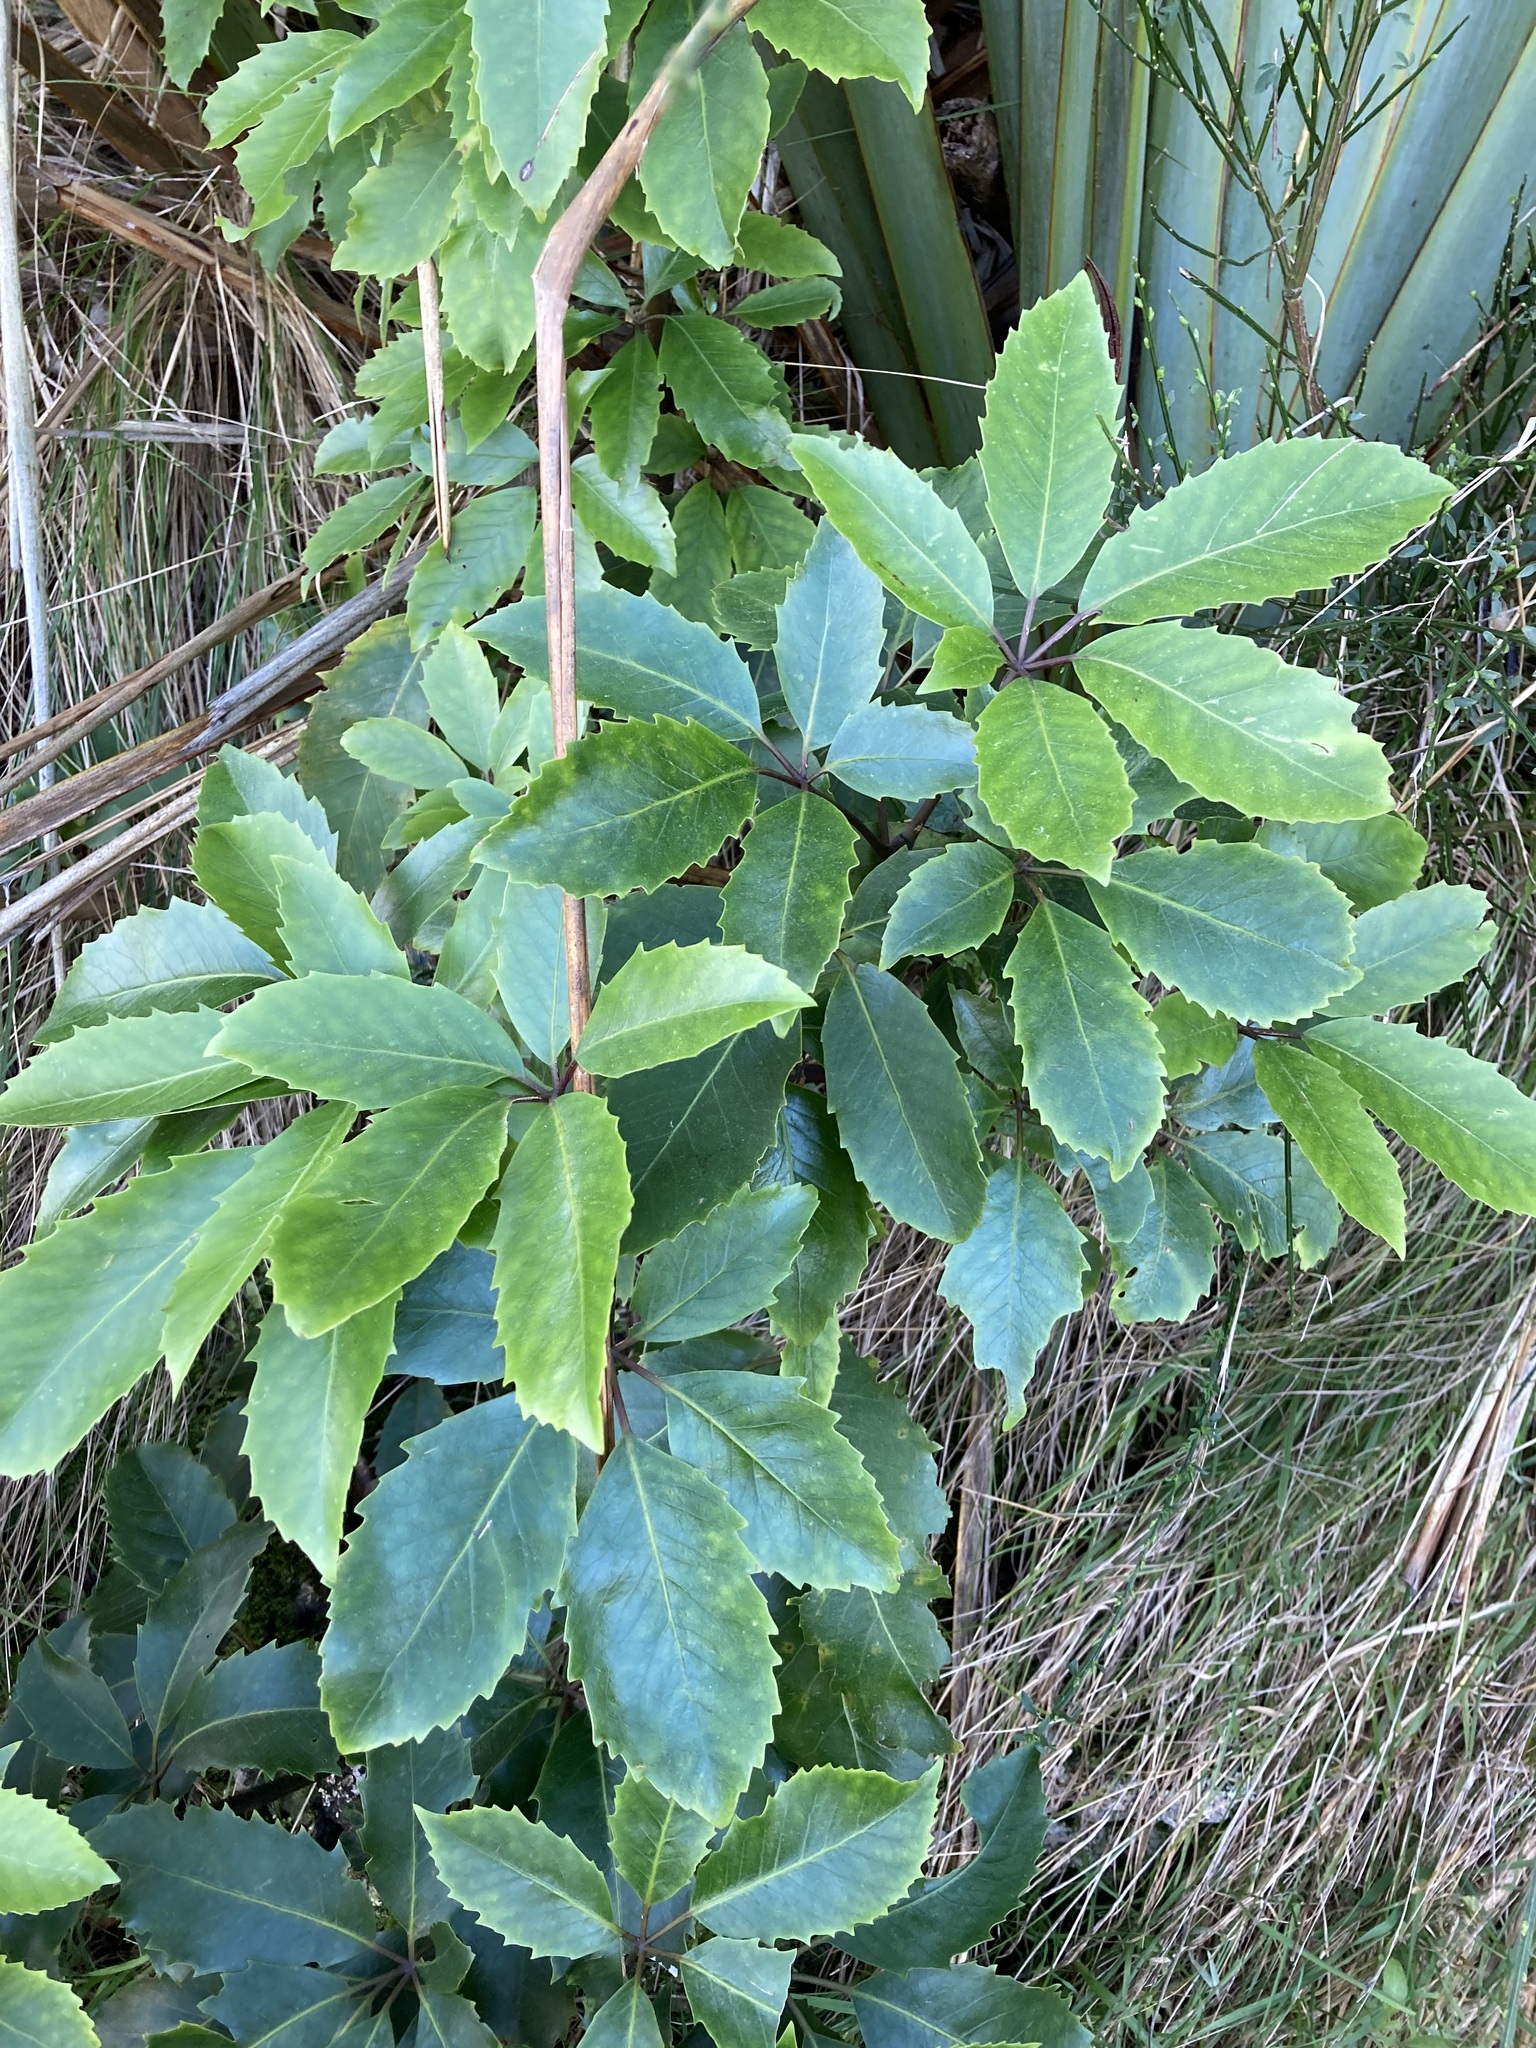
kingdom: Plantae
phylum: Tracheophyta
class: Magnoliopsida
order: Apiales
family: Araliaceae
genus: Neopanax
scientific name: Neopanax arboreus
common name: Five-fingers
